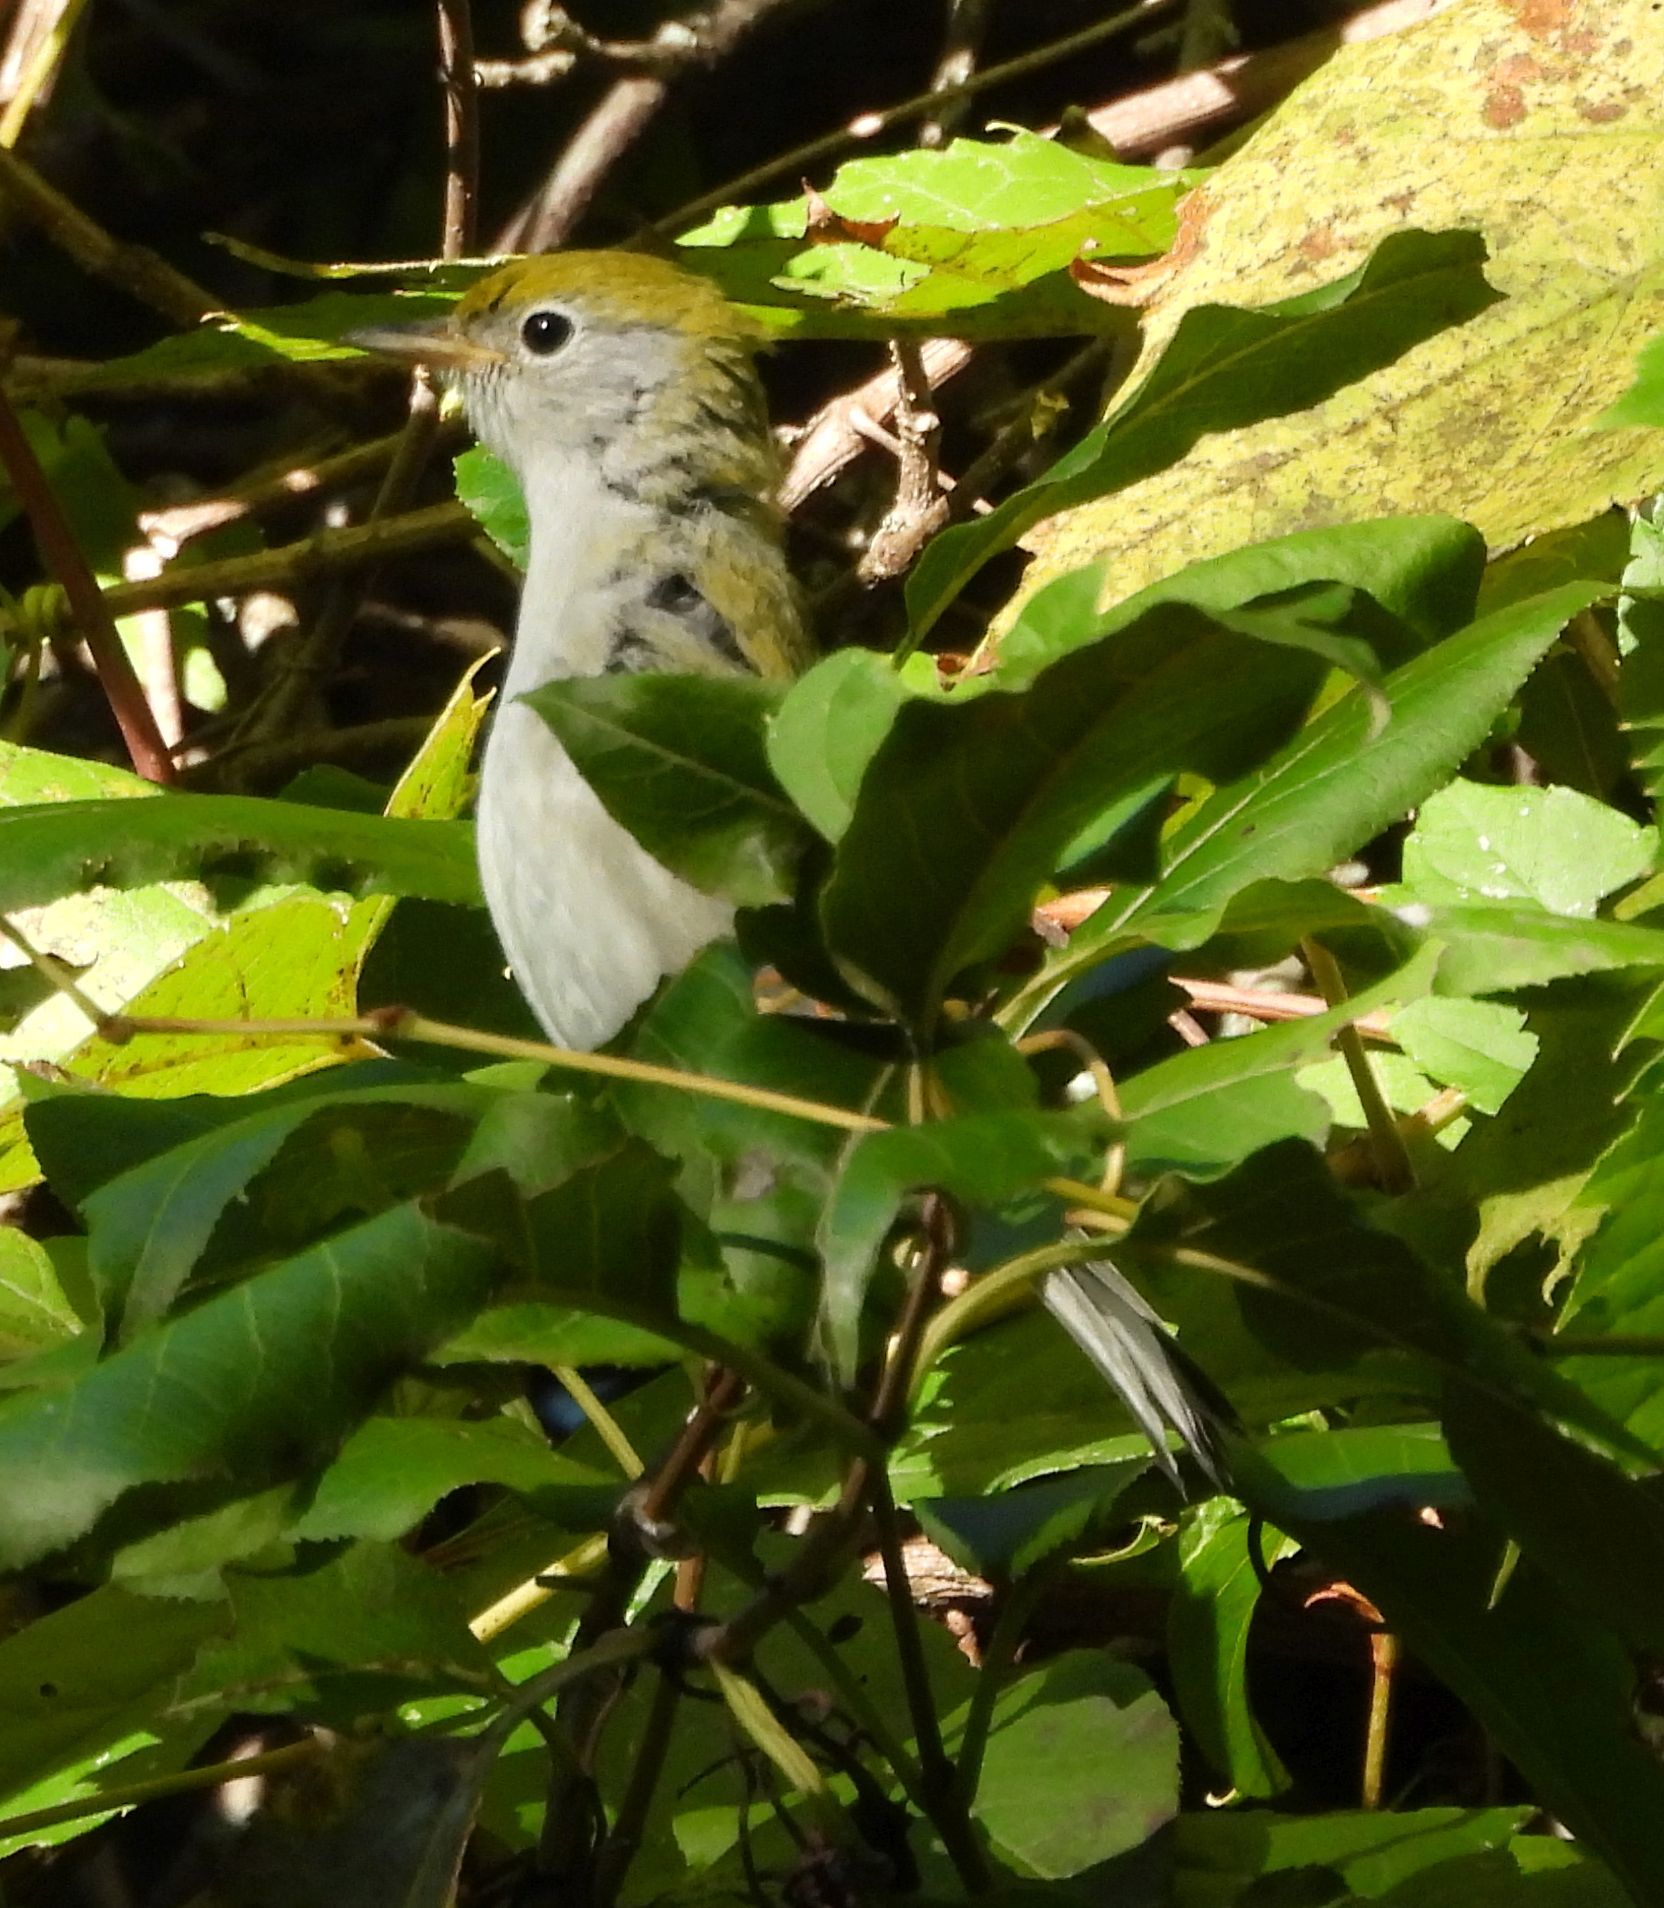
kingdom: Animalia
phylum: Chordata
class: Aves
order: Passeriformes
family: Parulidae
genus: Setophaga
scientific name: Setophaga pensylvanica
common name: Chestnut-sided warbler
